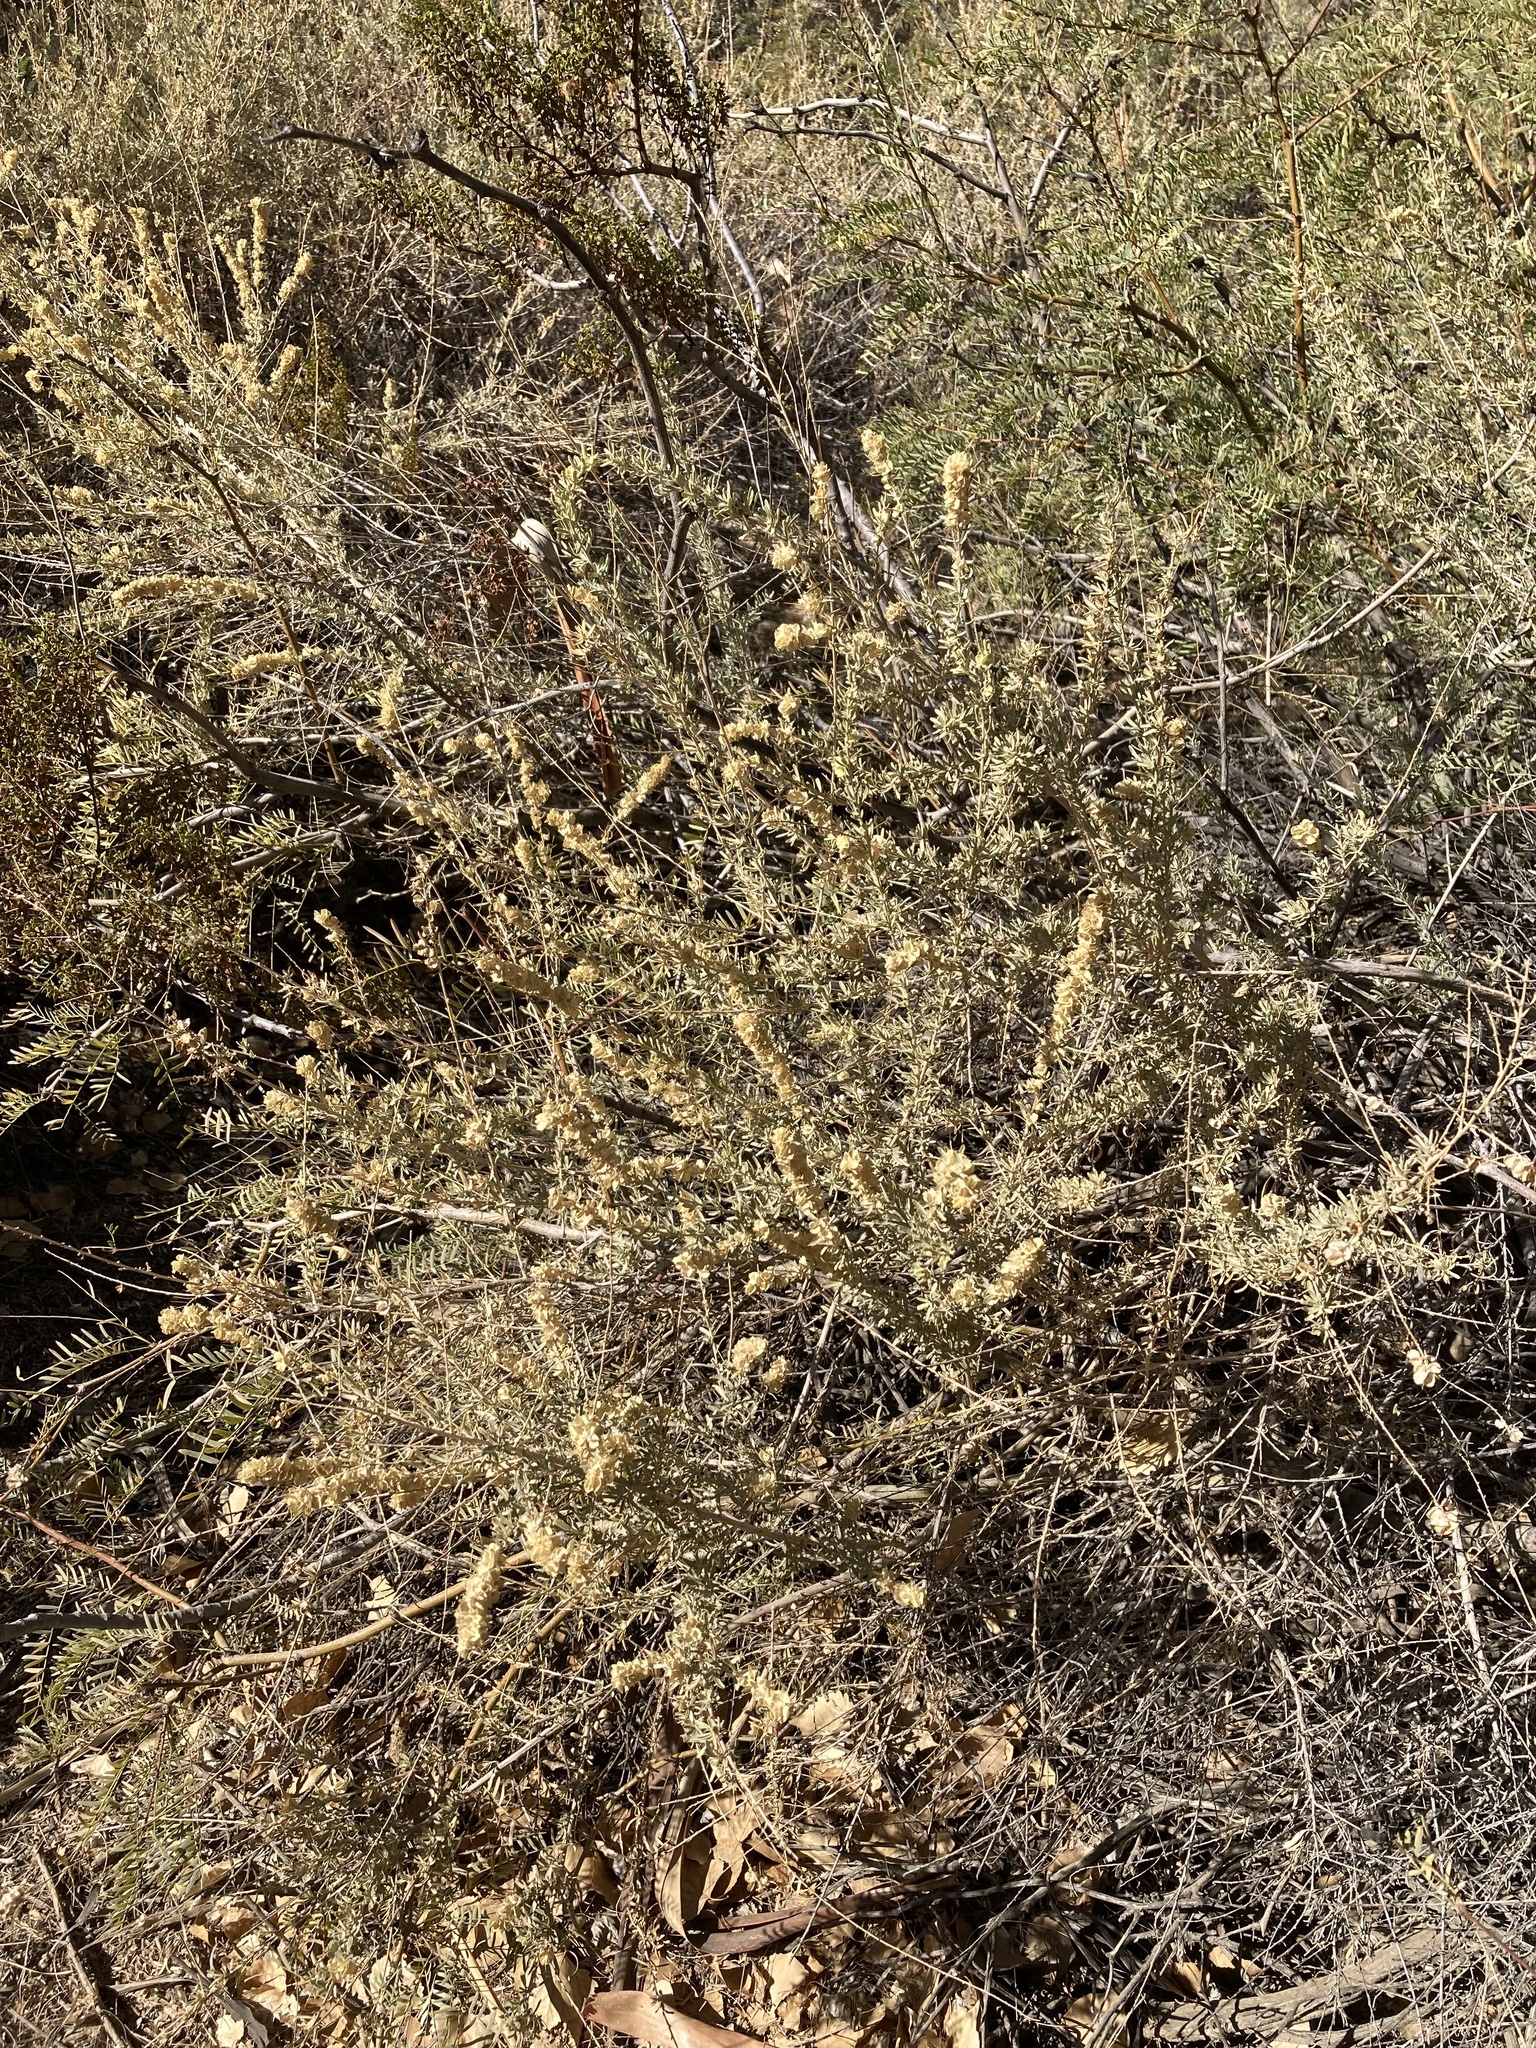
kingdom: Plantae
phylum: Tracheophyta
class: Magnoliopsida
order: Caryophyllales
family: Amaranthaceae
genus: Atriplex
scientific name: Atriplex canescens
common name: Four-wing saltbush
